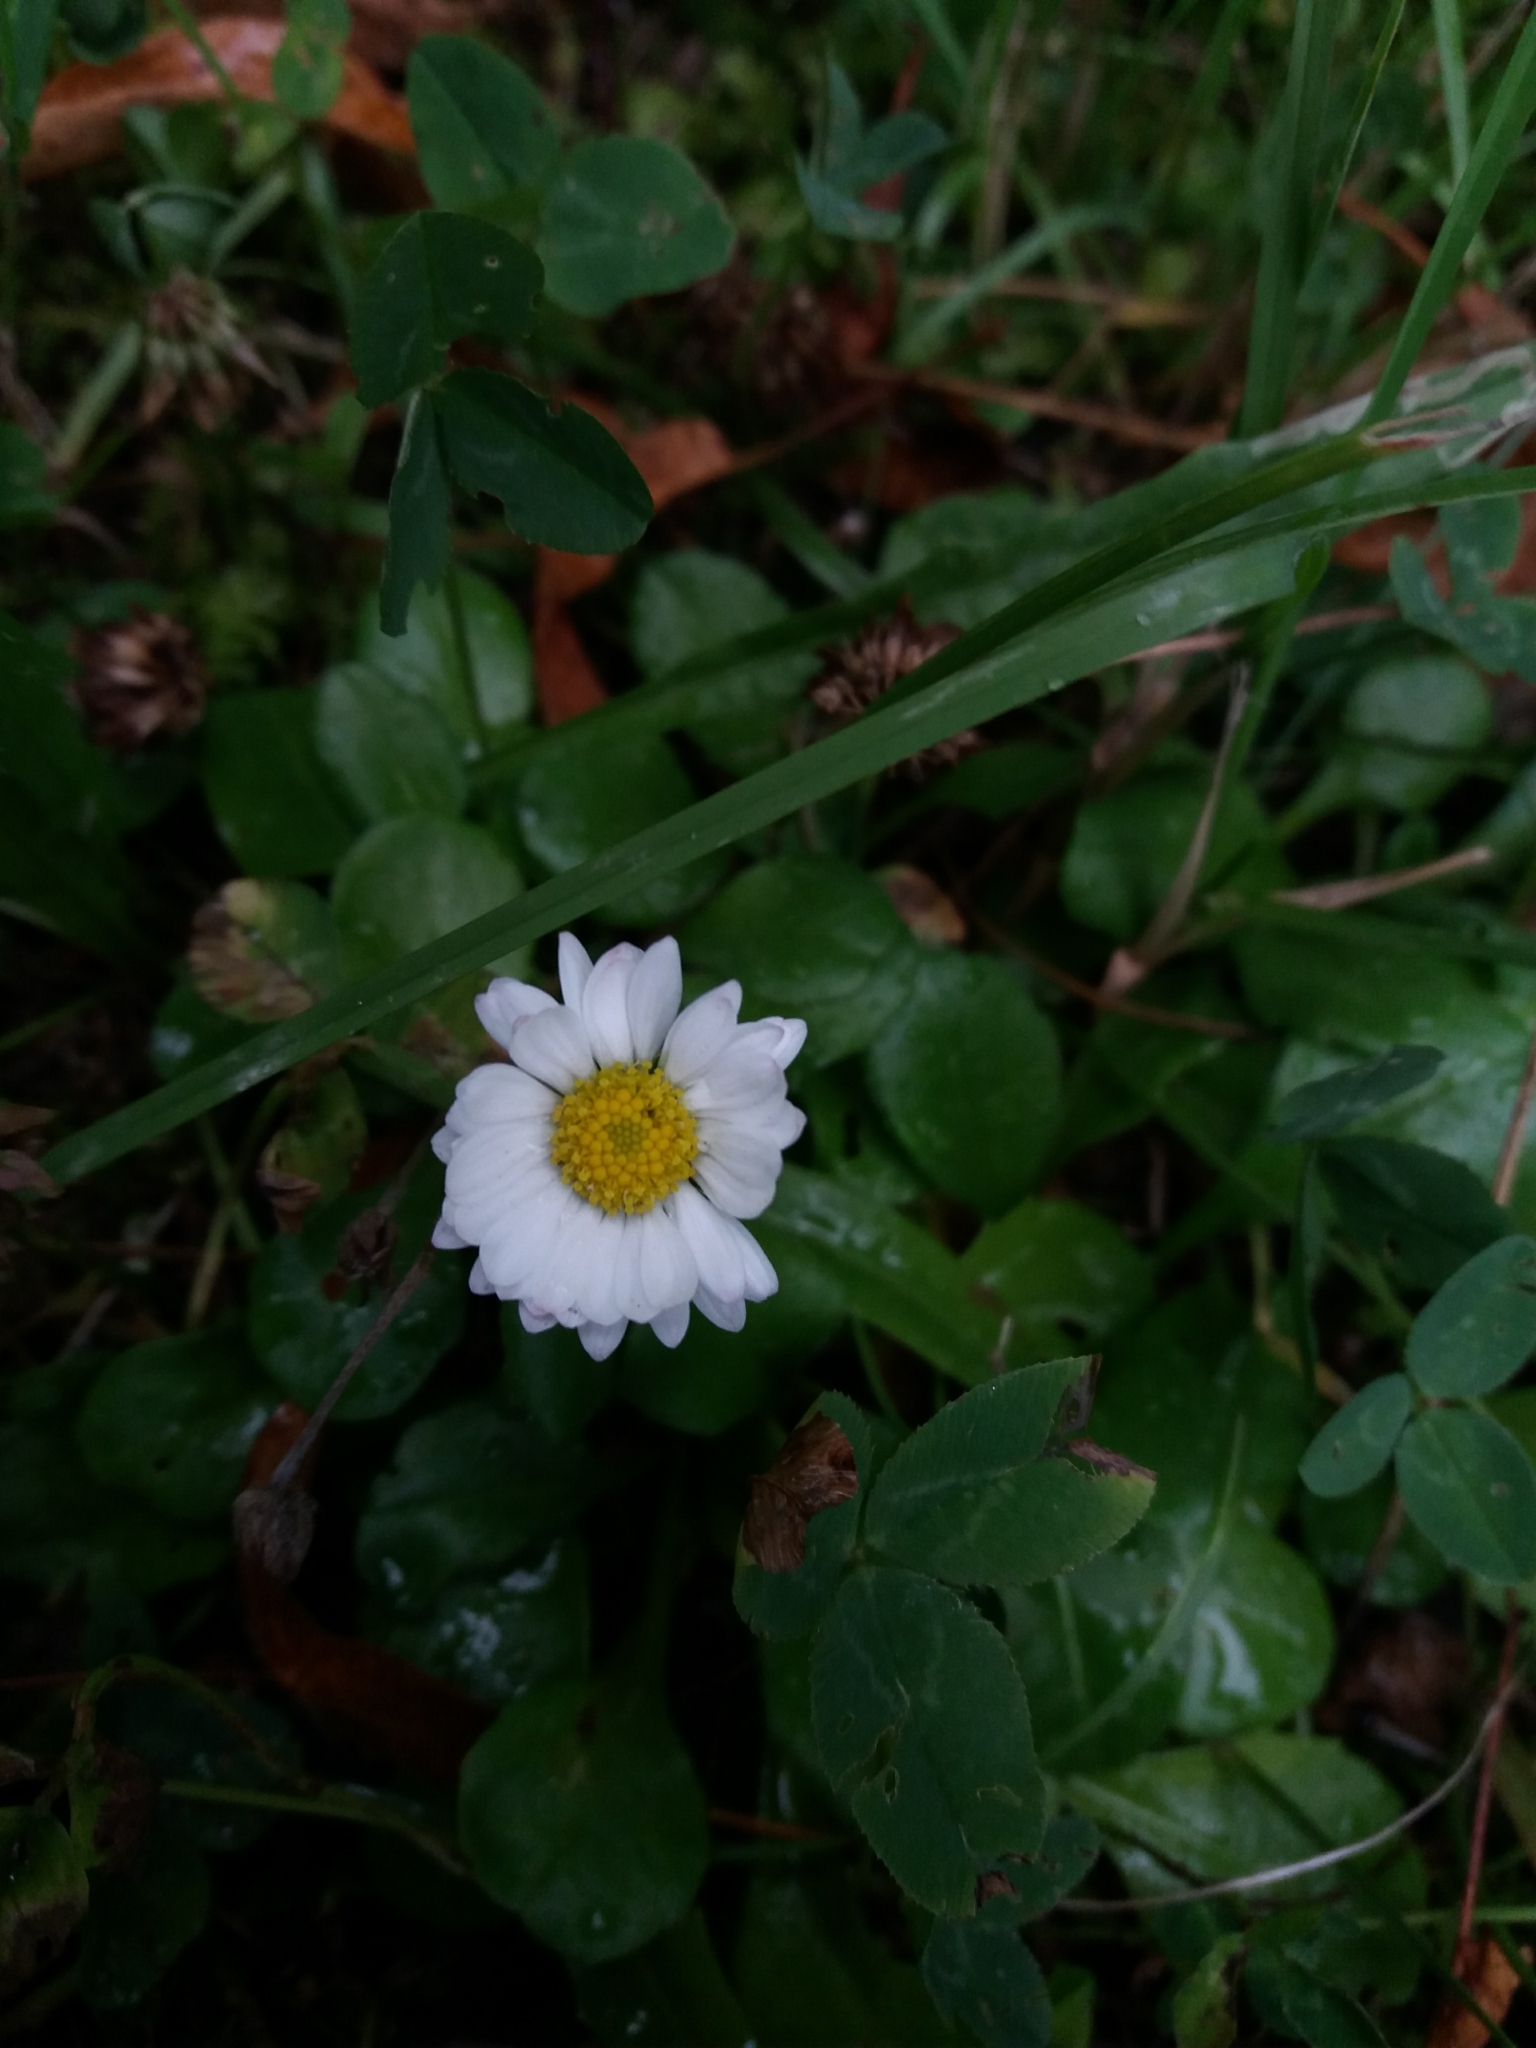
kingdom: Plantae
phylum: Tracheophyta
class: Magnoliopsida
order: Asterales
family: Asteraceae
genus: Bellis
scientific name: Bellis perennis
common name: Lawndaisy
